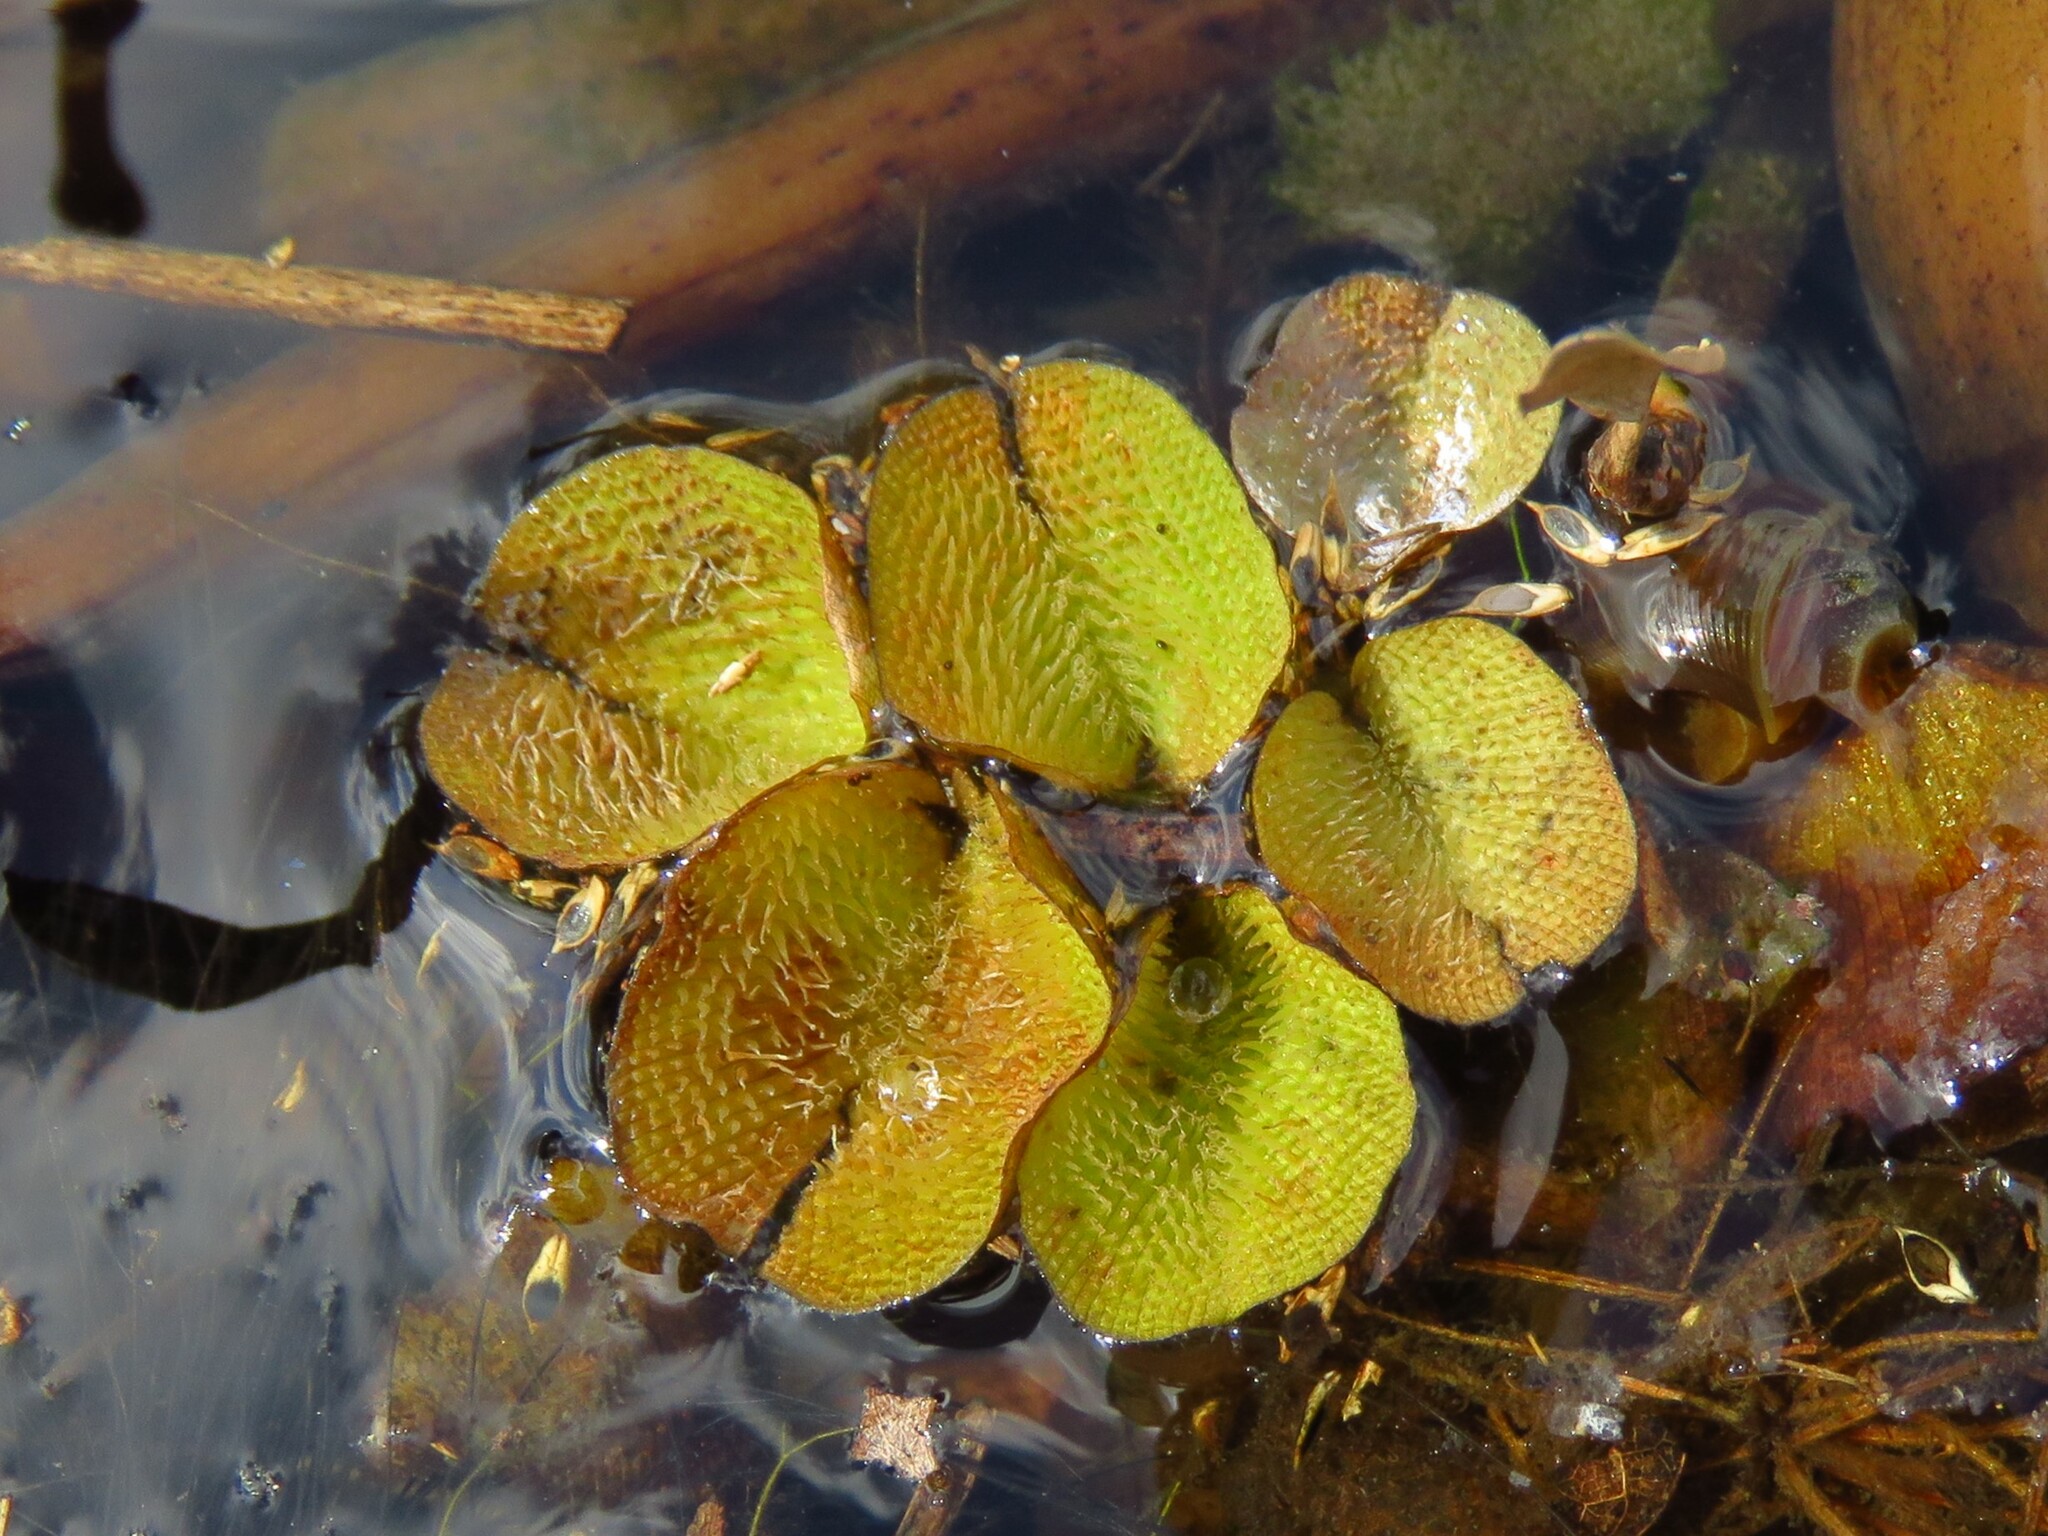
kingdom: Plantae
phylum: Tracheophyta
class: Polypodiopsida
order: Salviniales
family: Salviniaceae
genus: Salvinia
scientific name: Salvinia molesta
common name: Kariba weed
